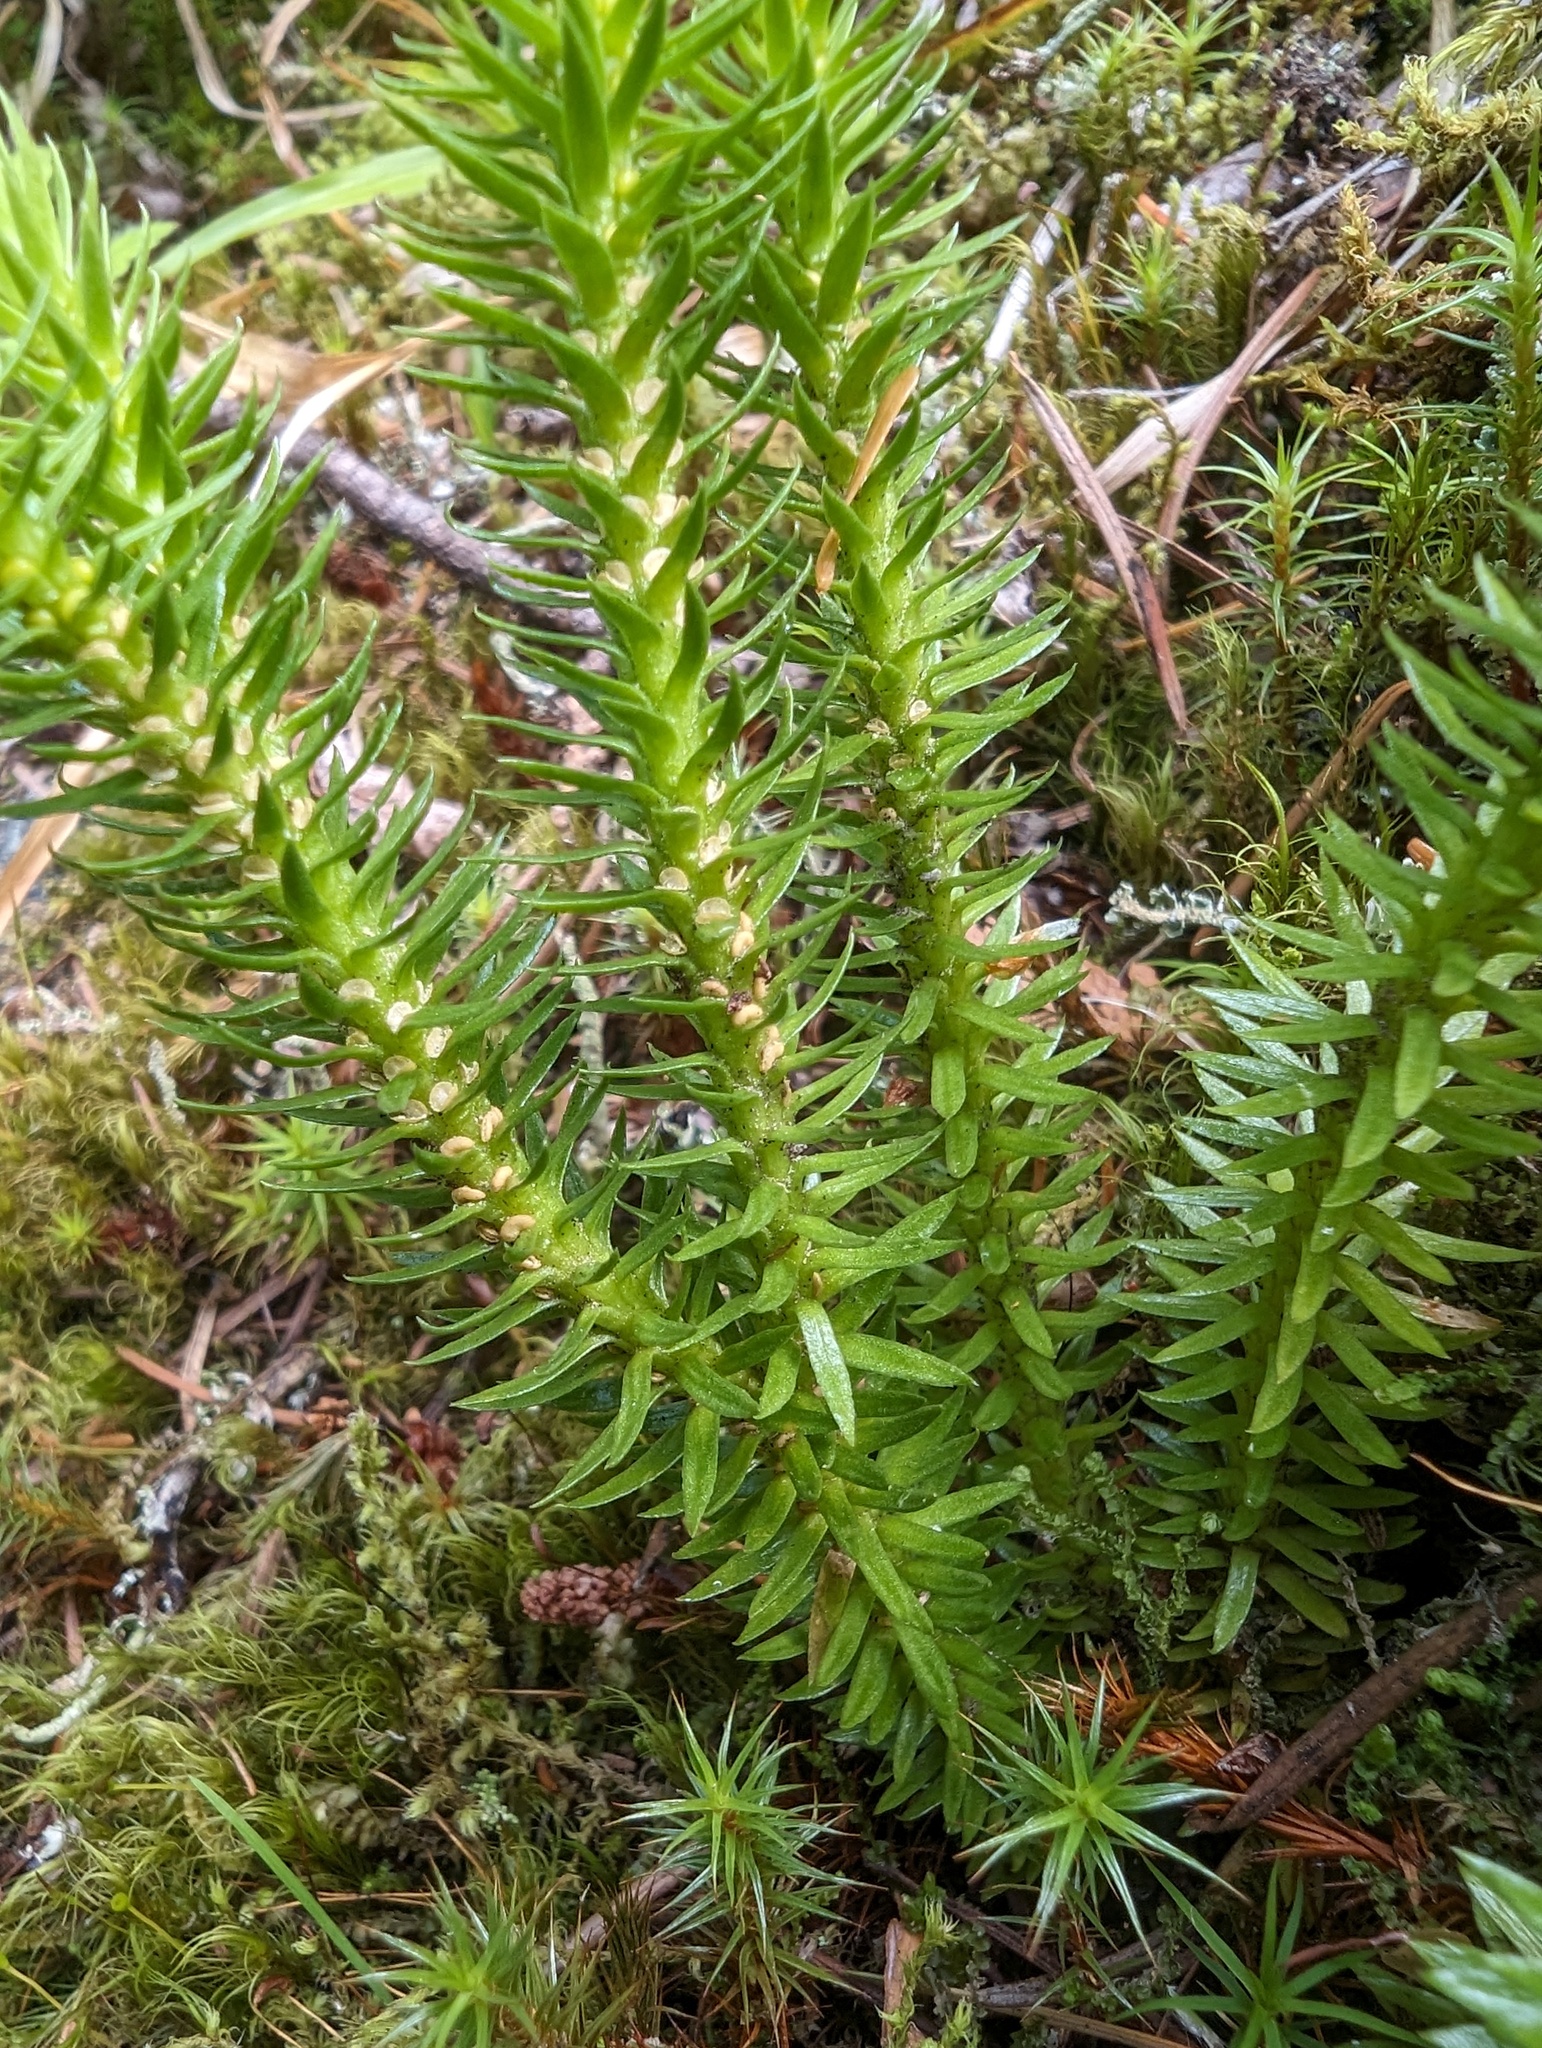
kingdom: Plantae
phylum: Tracheophyta
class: Lycopodiopsida
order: Lycopodiales
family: Lycopodiaceae
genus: Huperzia
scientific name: Huperzia occidentalis
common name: Western clubmoss
